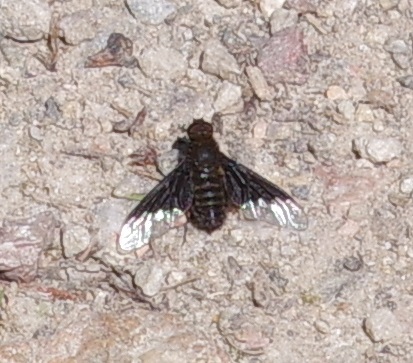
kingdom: Animalia
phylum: Arthropoda
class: Insecta
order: Diptera
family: Bombyliidae
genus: Hemipenthes
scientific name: Hemipenthes morio
